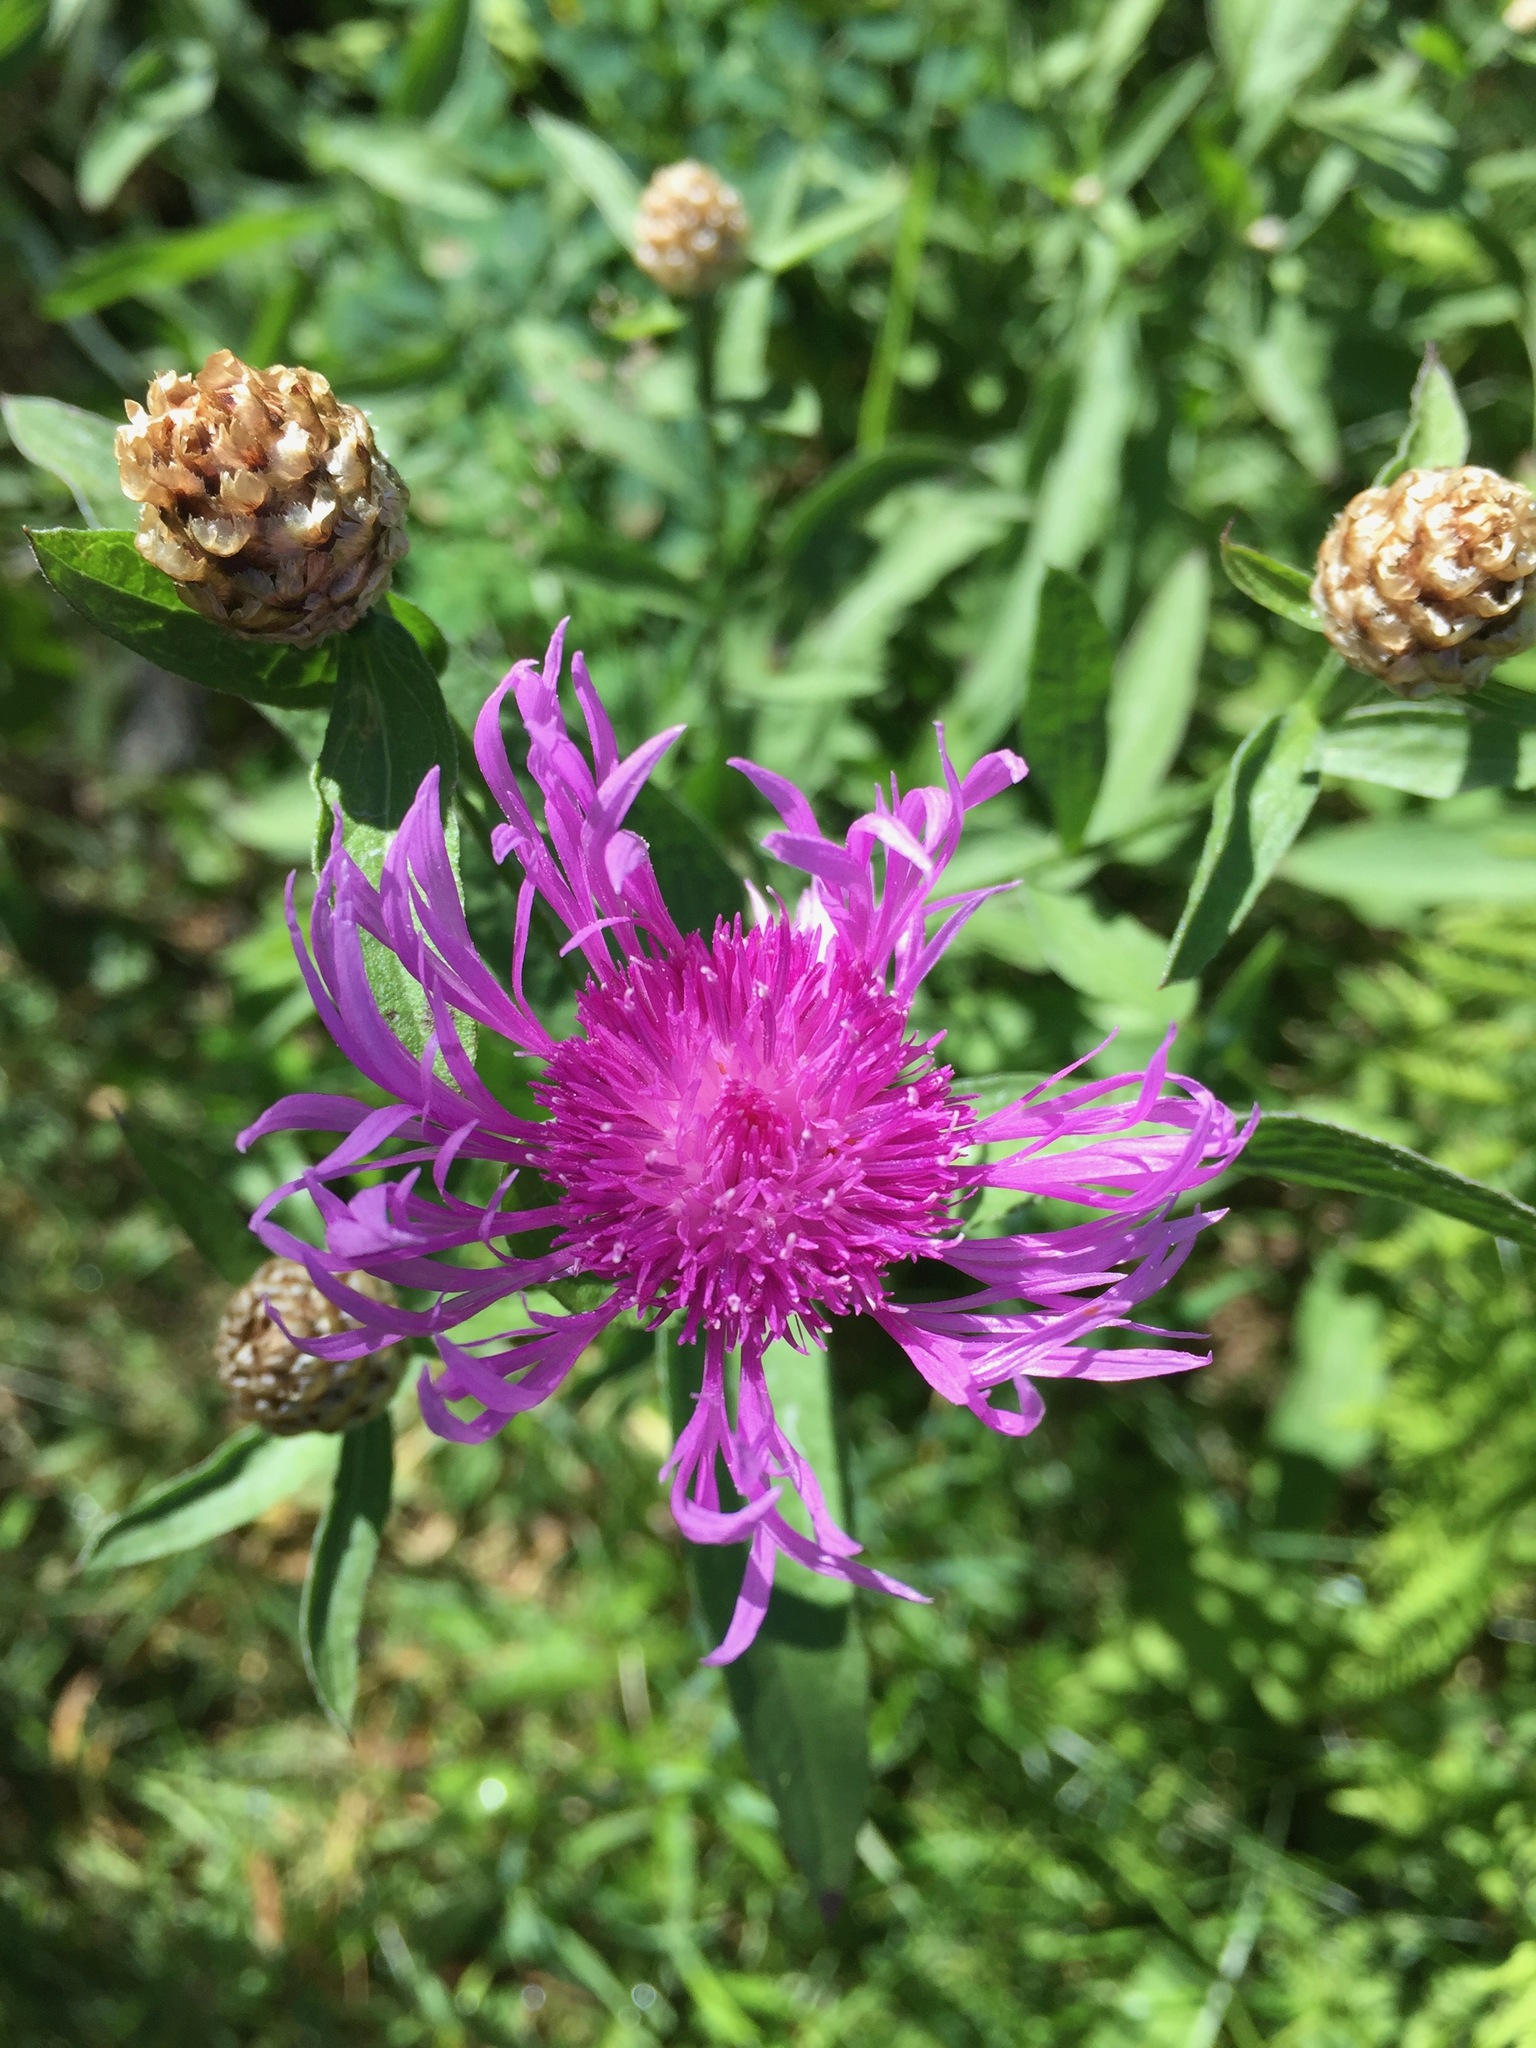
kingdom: Plantae
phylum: Tracheophyta
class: Magnoliopsida
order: Asterales
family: Asteraceae
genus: Centaurea
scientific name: Centaurea jacea
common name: Brown knapweed
